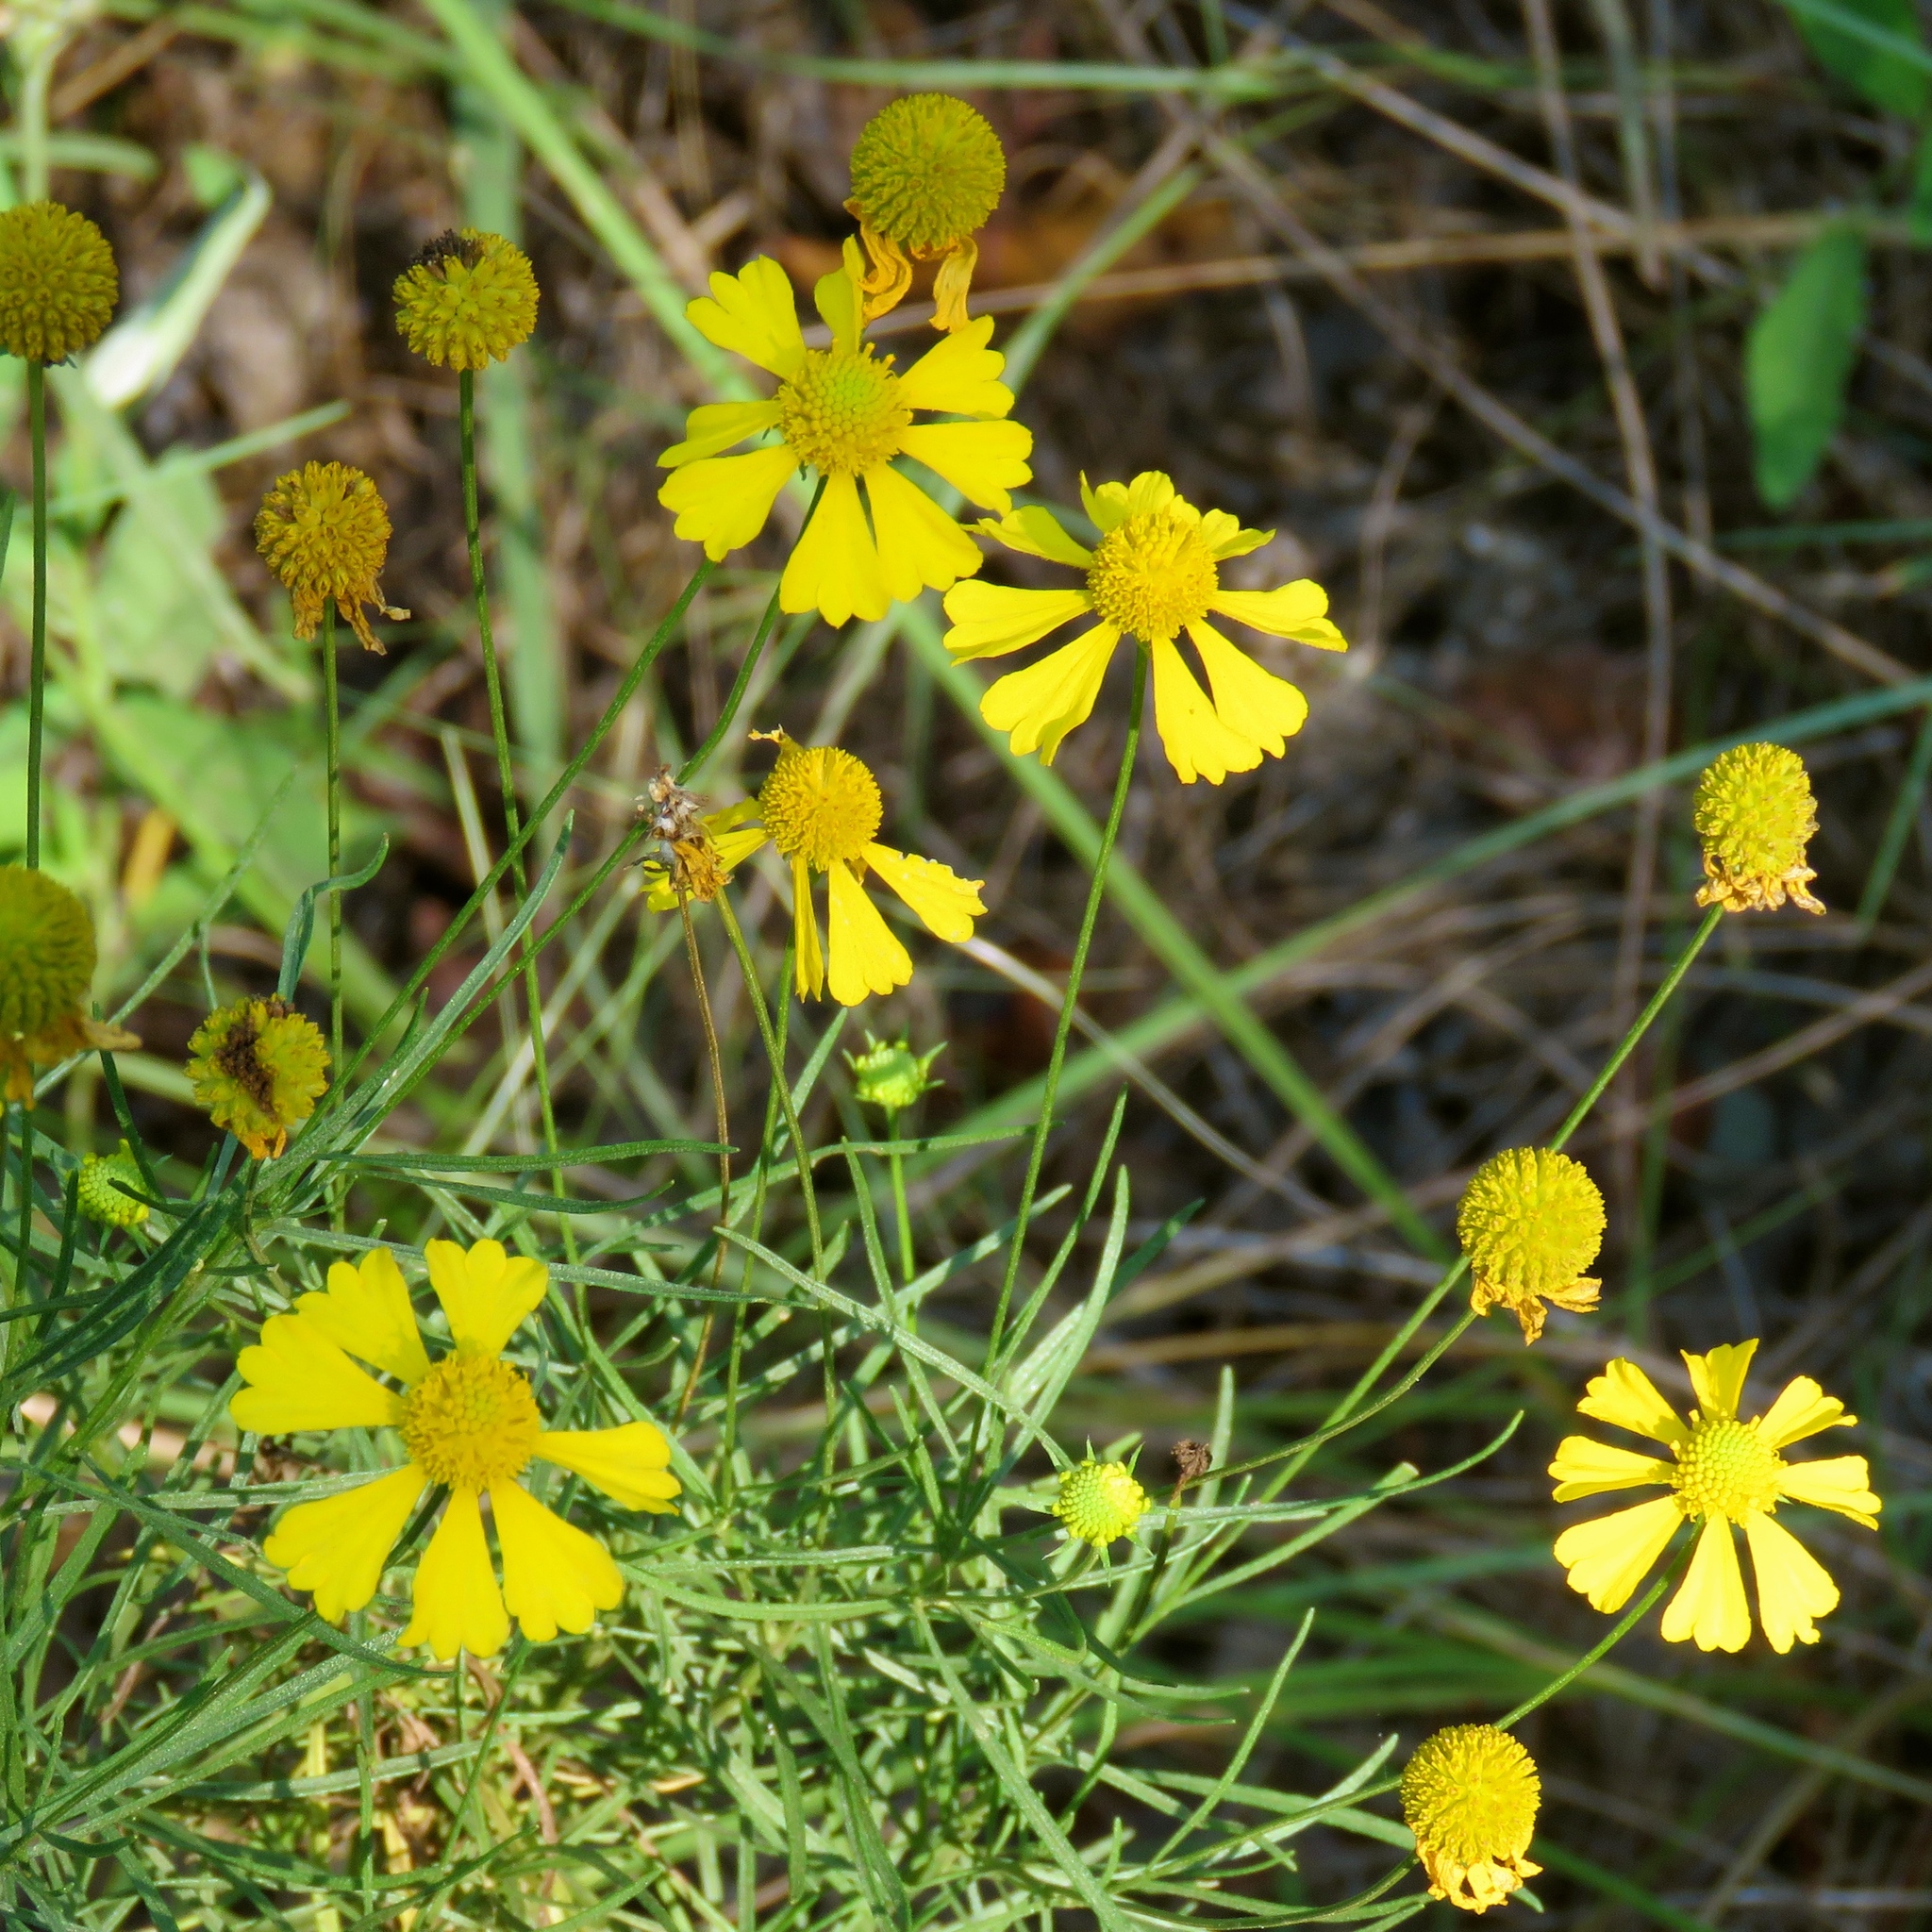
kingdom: Plantae
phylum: Tracheophyta
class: Magnoliopsida
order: Asterales
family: Asteraceae
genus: Helenium
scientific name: Helenium amarum
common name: Bitter sneezeweed
